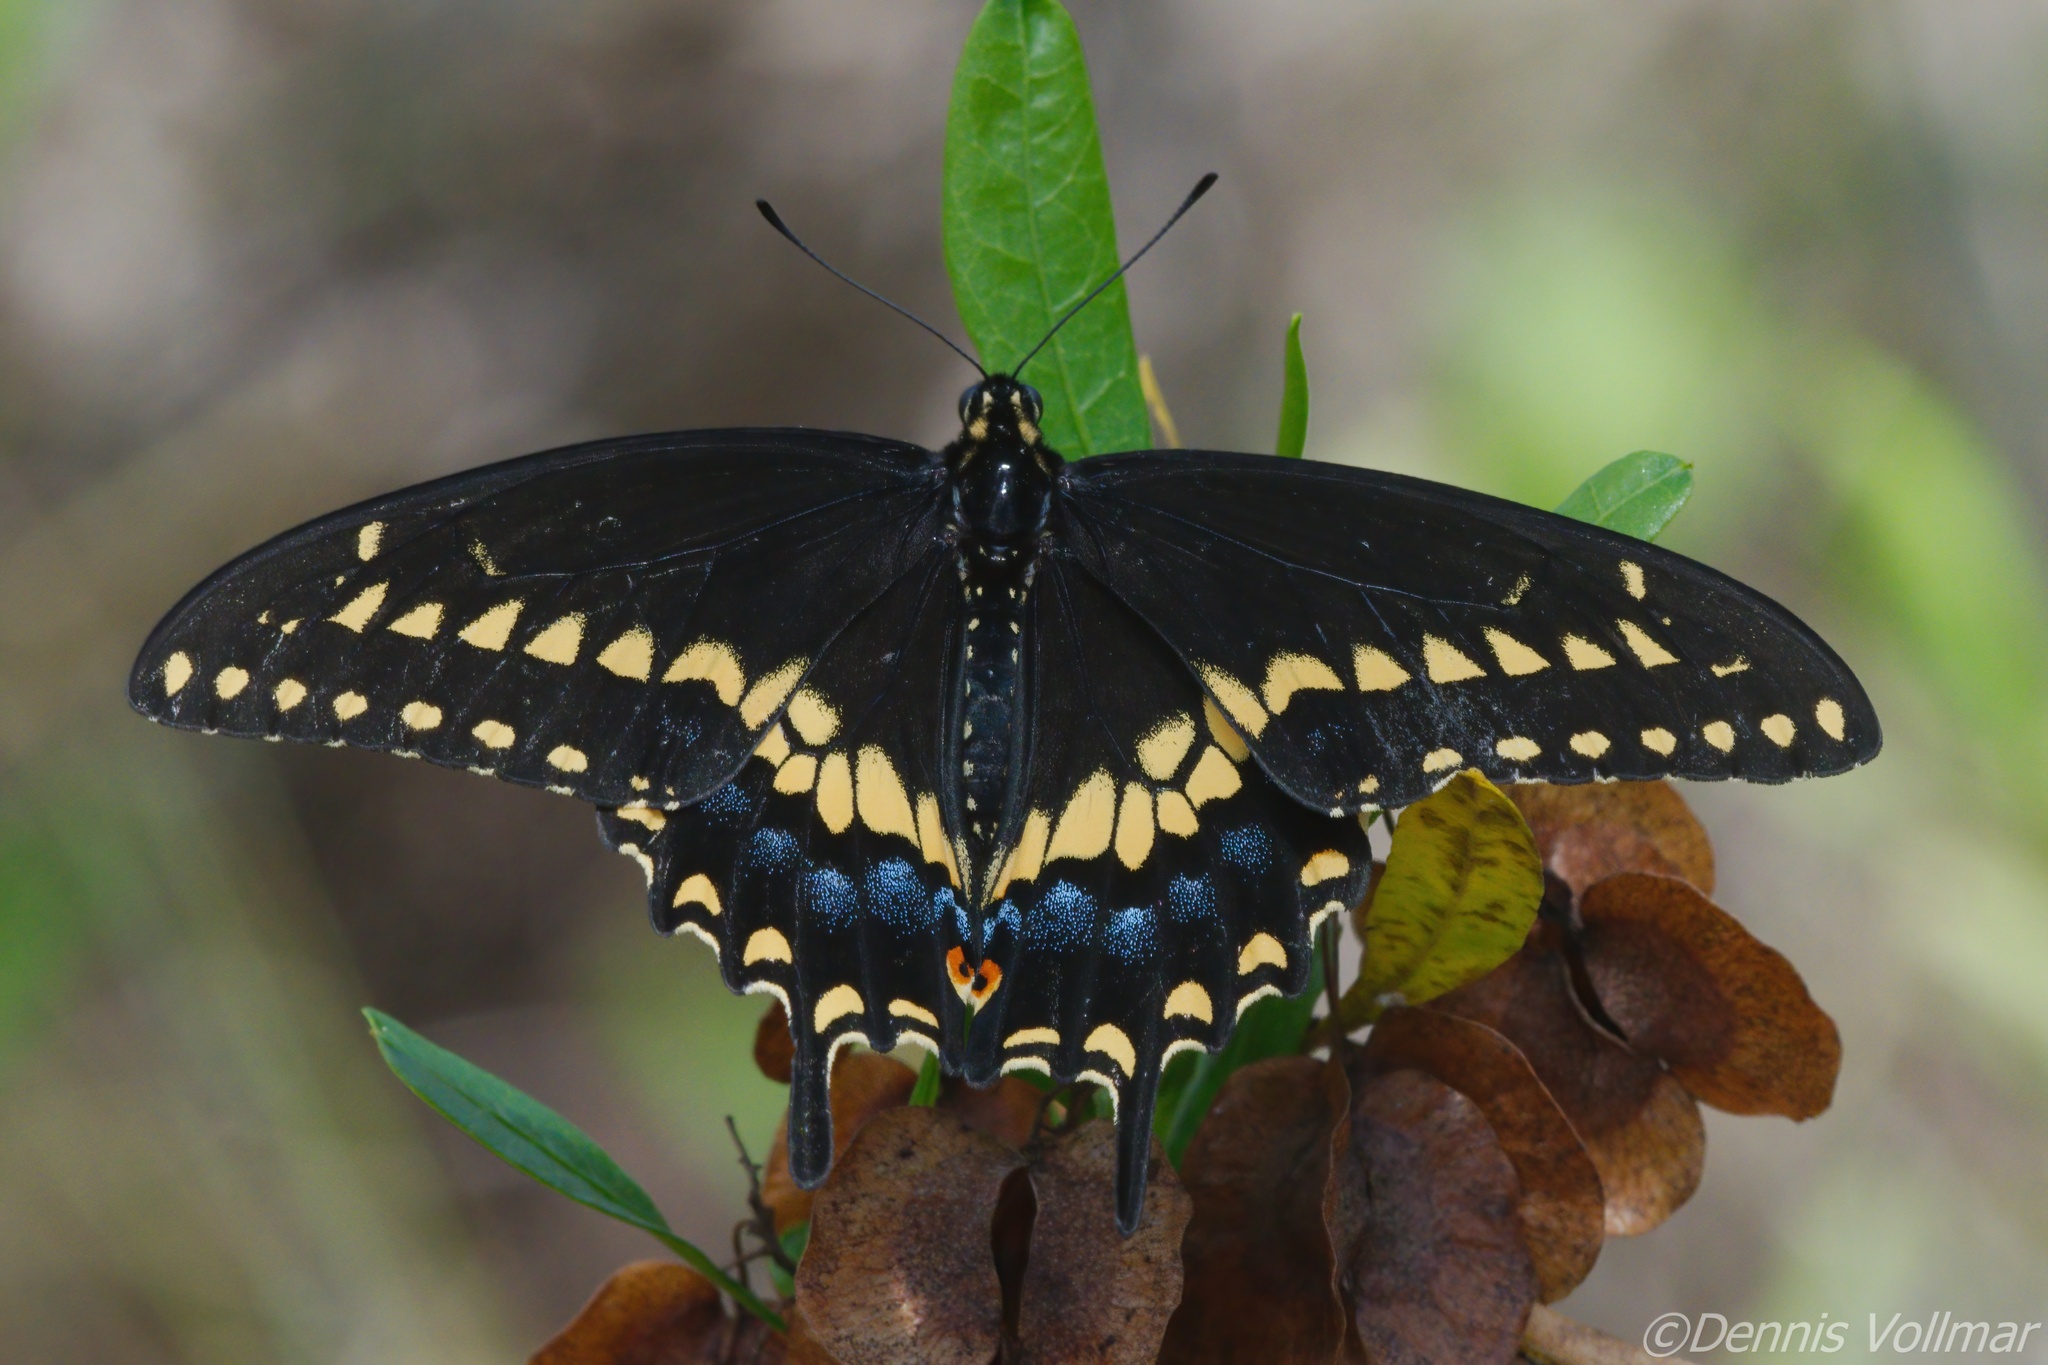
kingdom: Animalia
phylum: Arthropoda
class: Insecta
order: Lepidoptera
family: Papilionidae
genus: Papilio
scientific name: Papilio polyxenes
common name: Black swallowtail
